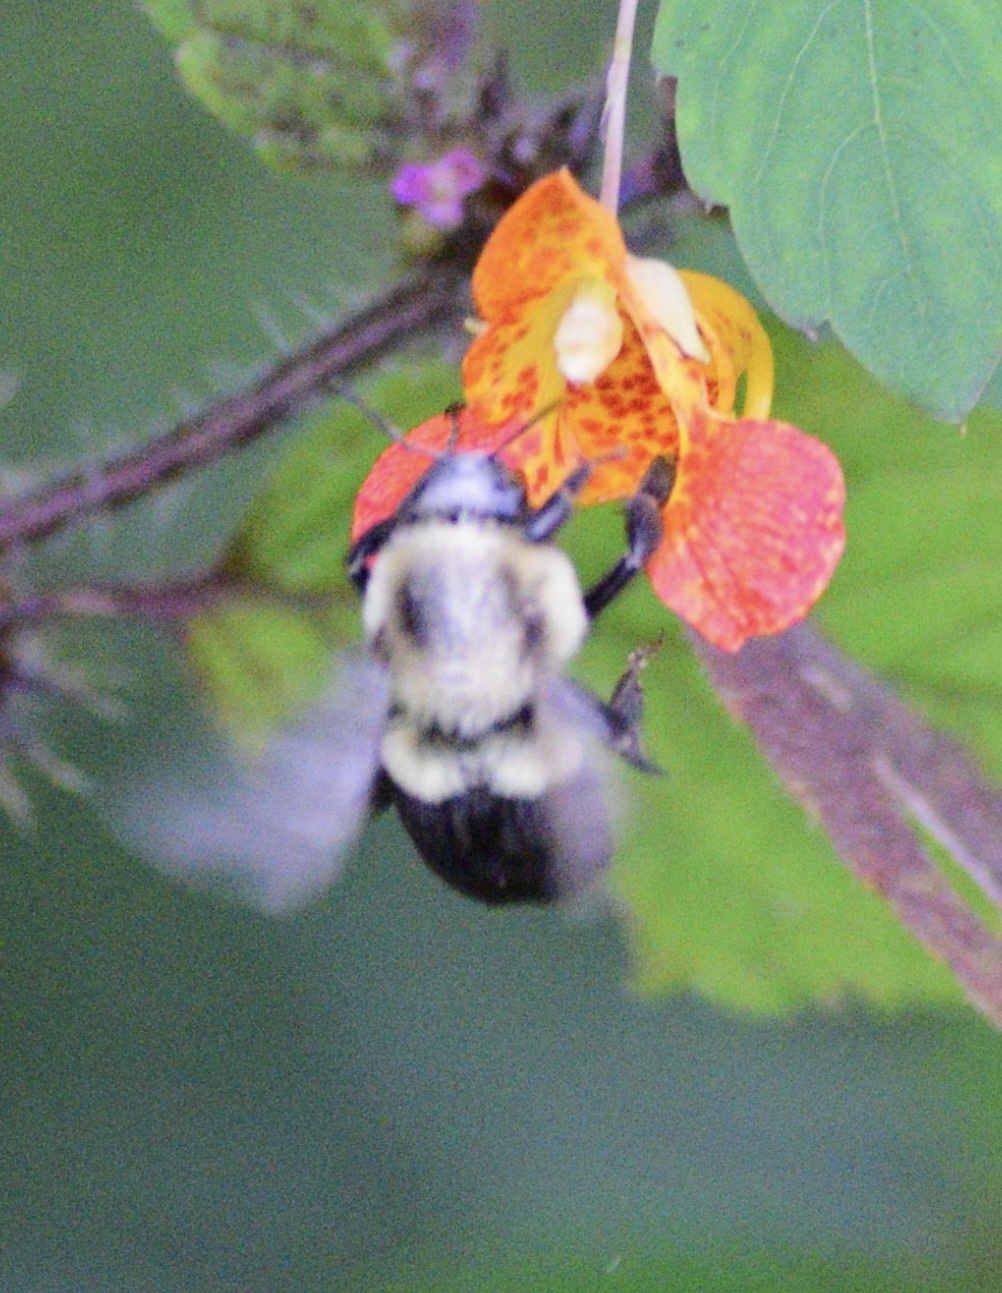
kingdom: Animalia
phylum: Arthropoda
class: Insecta
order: Hymenoptera
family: Apidae
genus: Bombus
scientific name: Bombus impatiens
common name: Common eastern bumble bee
